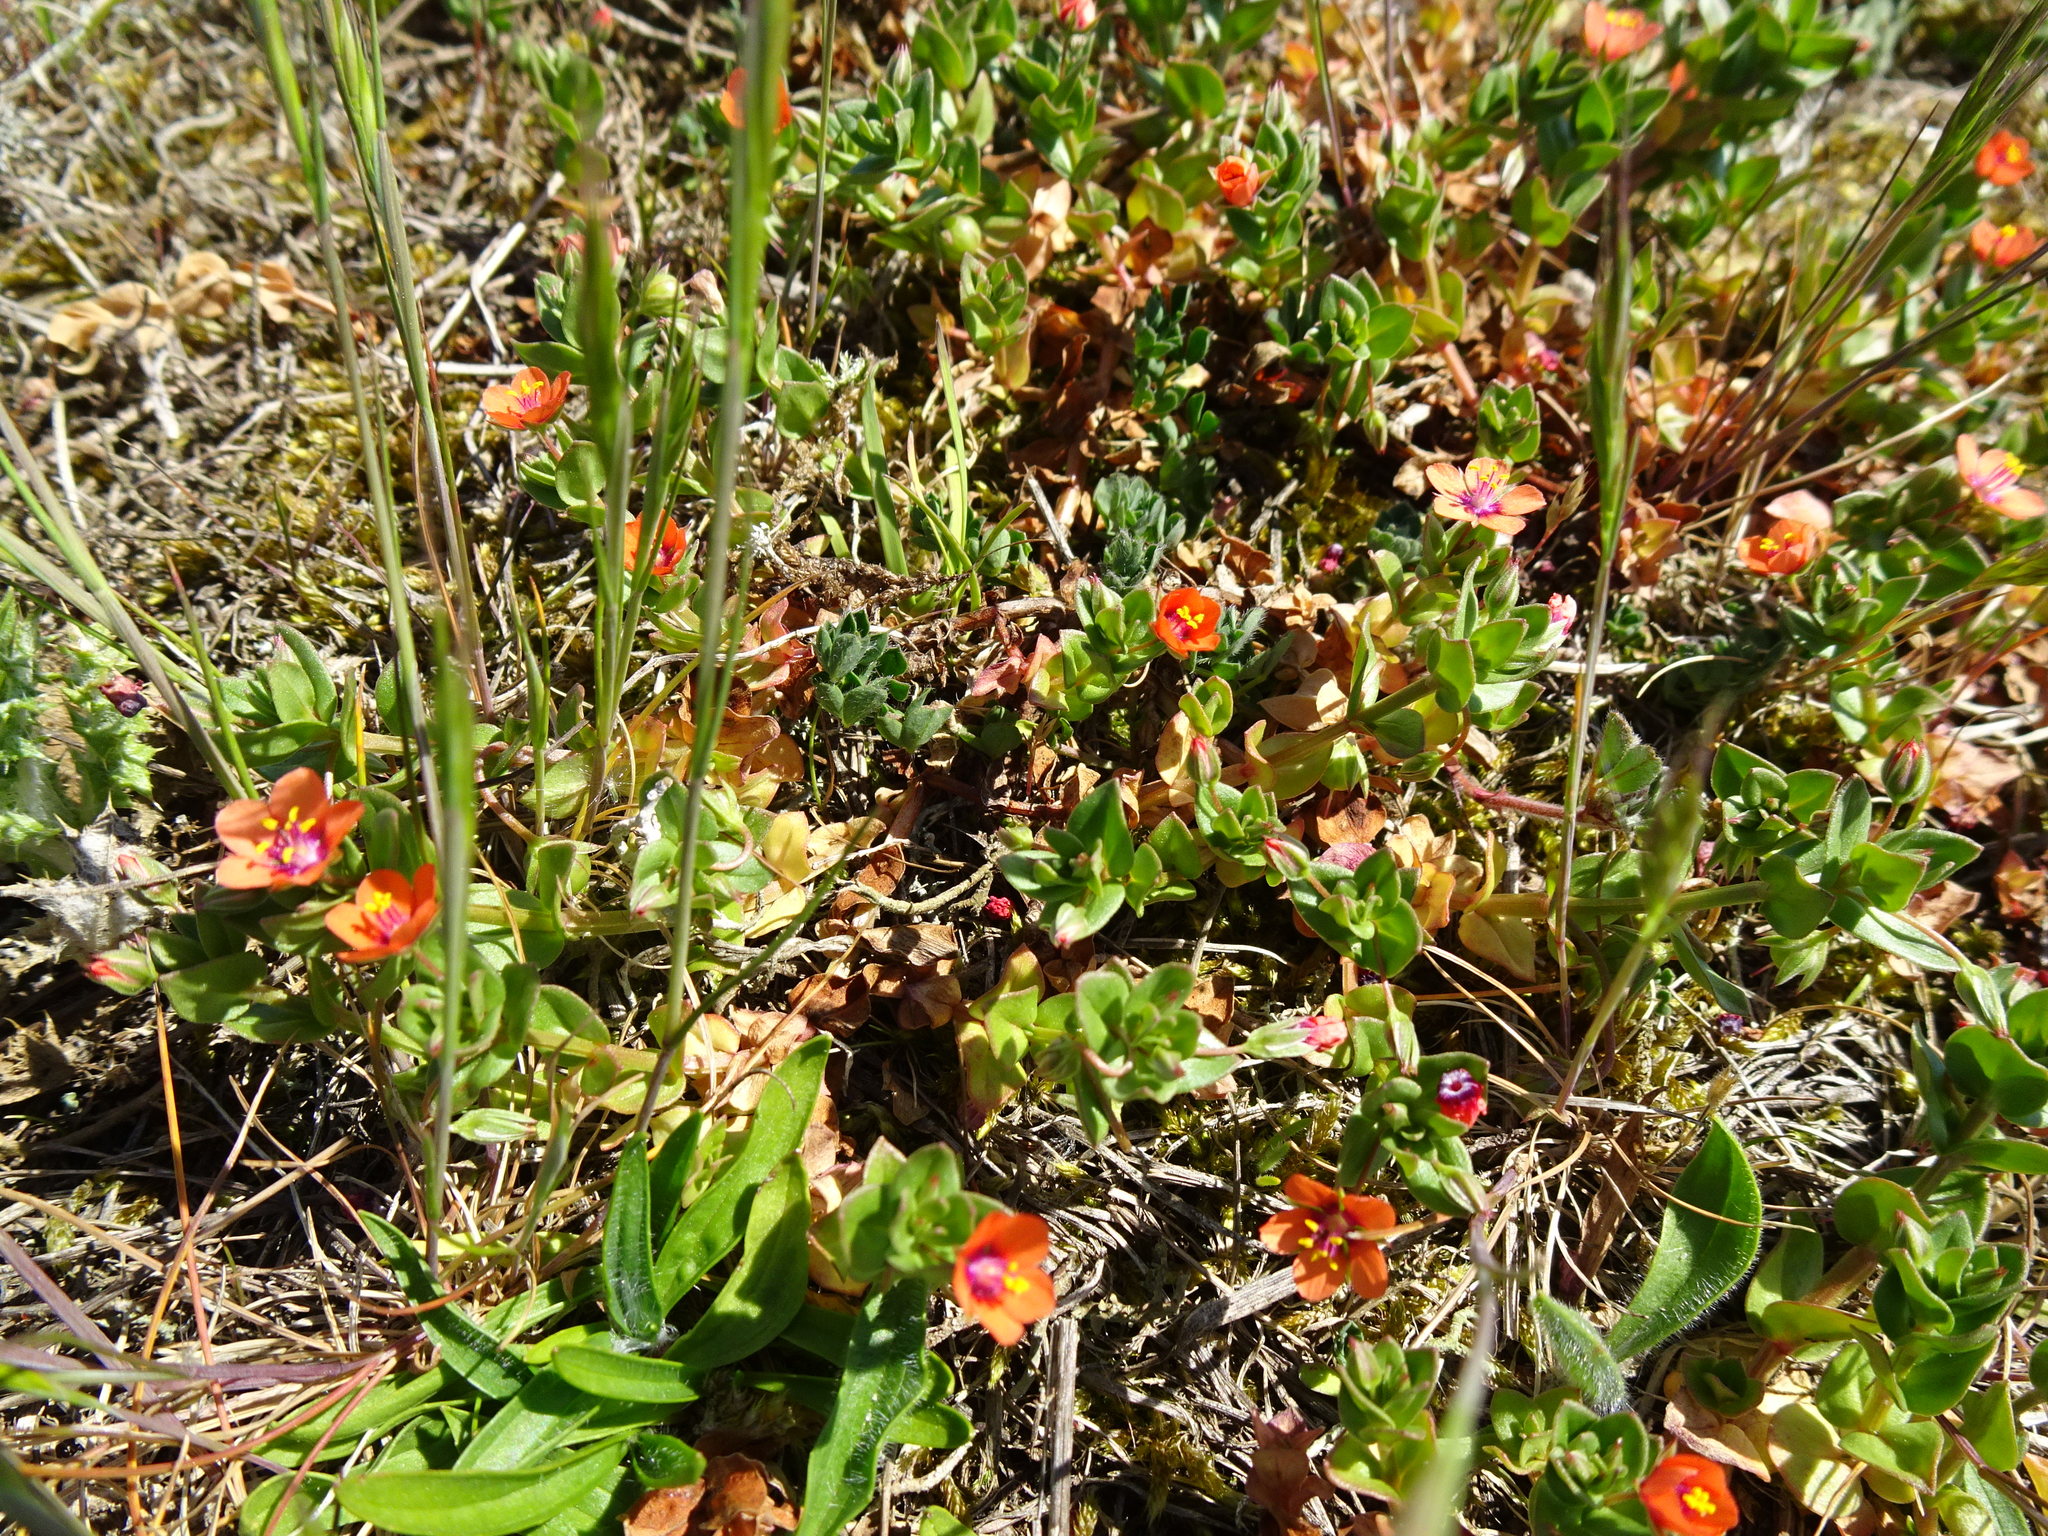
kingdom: Plantae
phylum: Tracheophyta
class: Magnoliopsida
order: Ericales
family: Primulaceae
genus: Lysimachia
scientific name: Lysimachia arvensis
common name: Scarlet pimpernel
